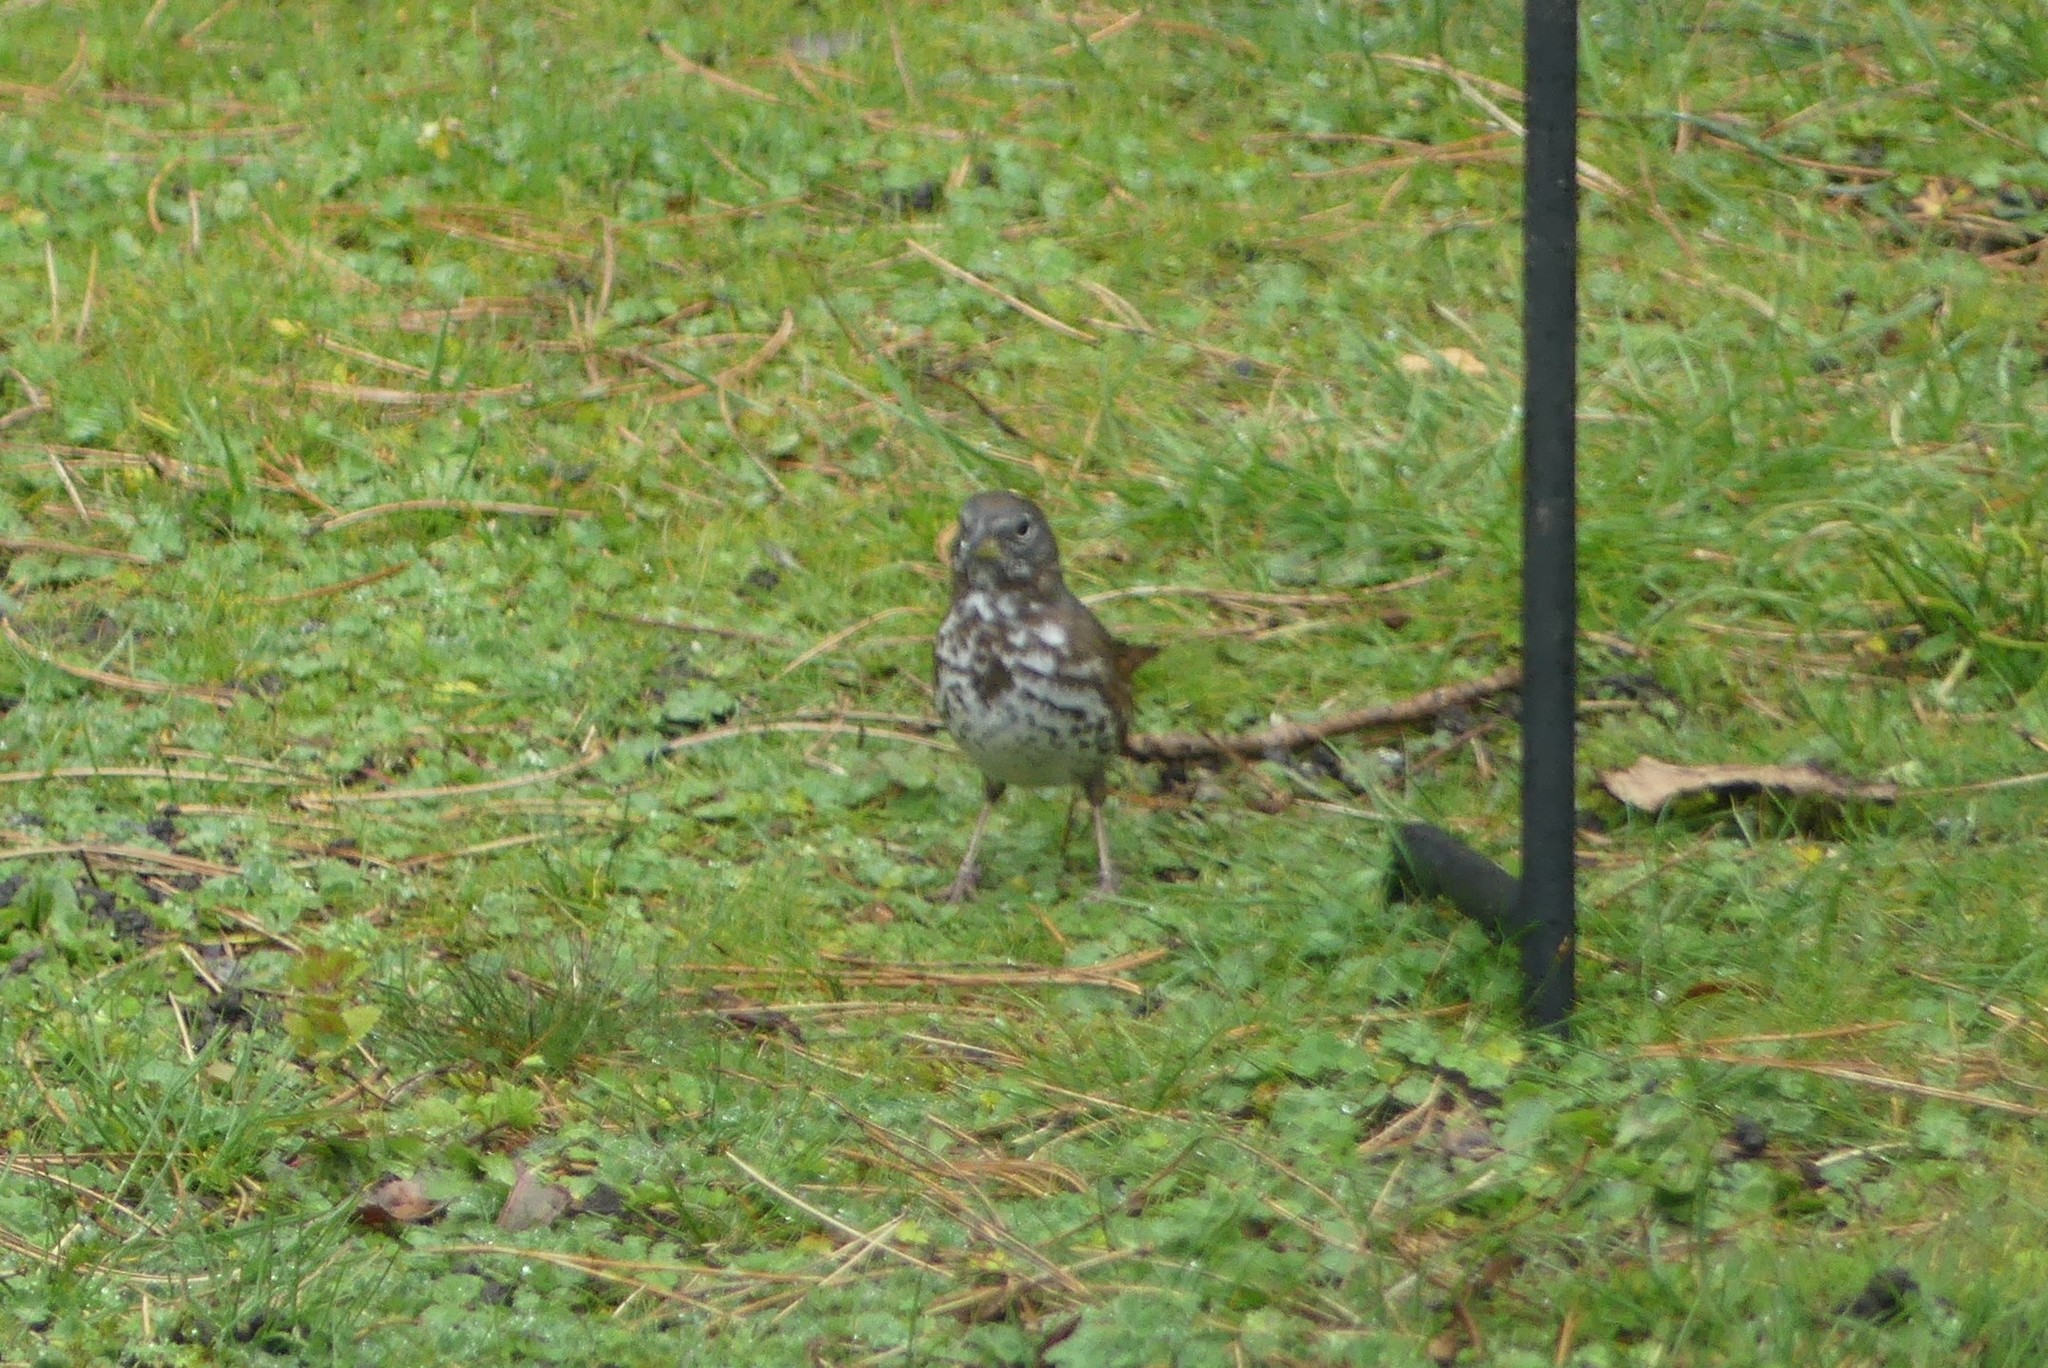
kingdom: Animalia
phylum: Chordata
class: Aves
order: Passeriformes
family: Passerellidae
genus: Passerella
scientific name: Passerella iliaca
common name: Fox sparrow
